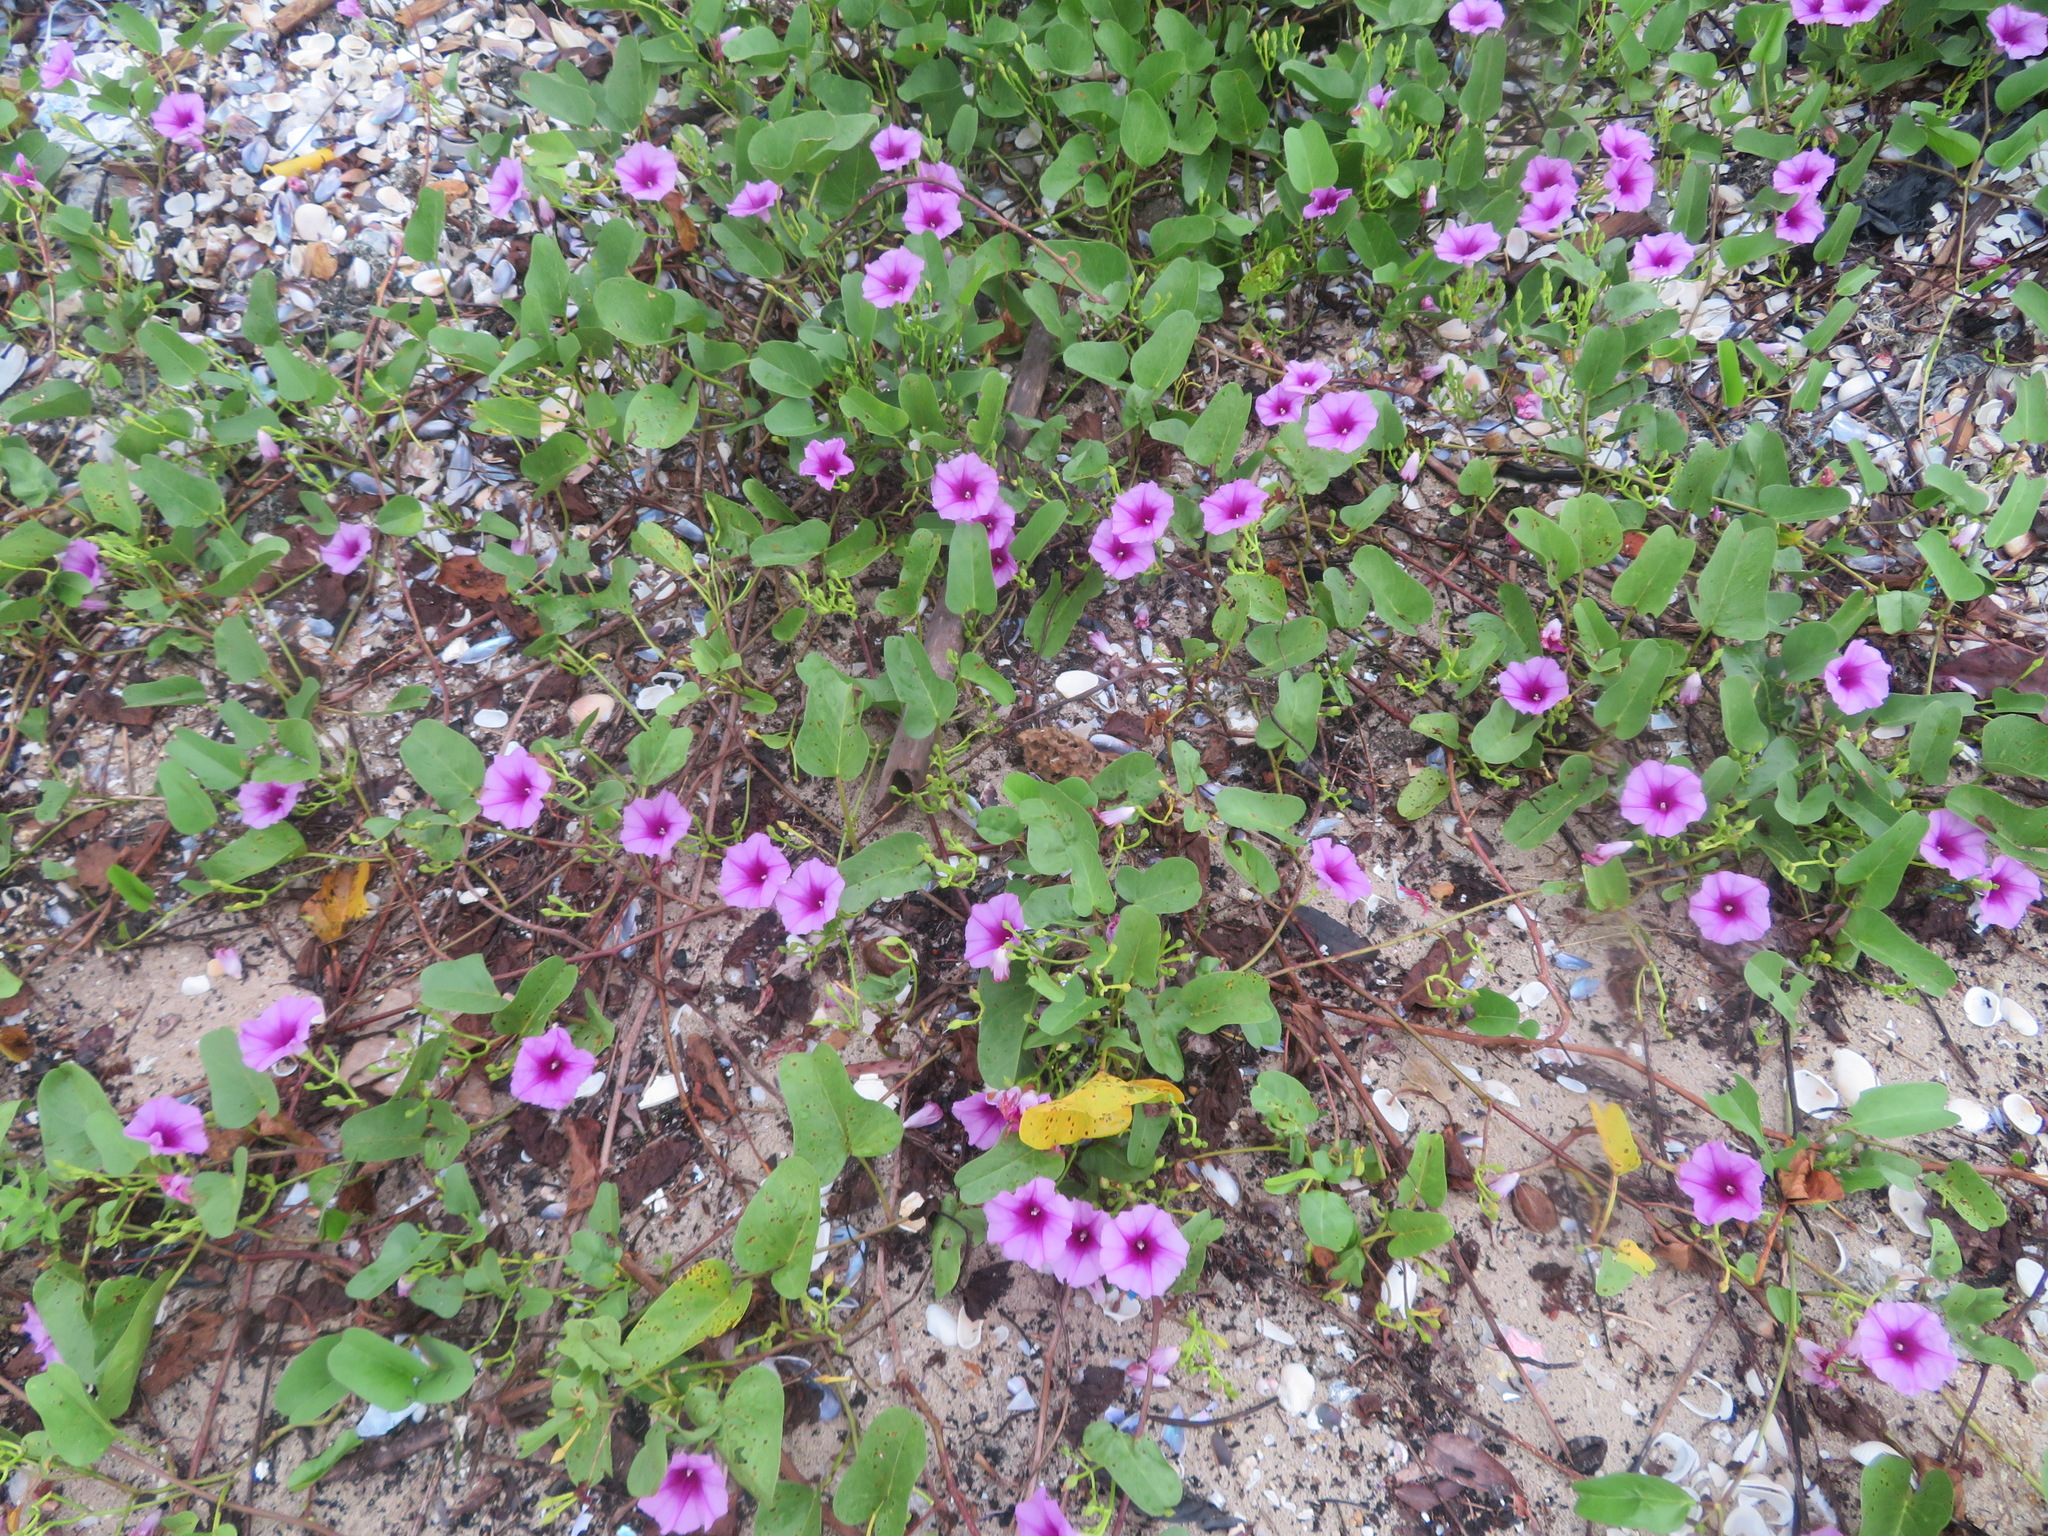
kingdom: Plantae
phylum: Tracheophyta
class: Magnoliopsida
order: Solanales
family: Convolvulaceae
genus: Ipomoea
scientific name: Ipomoea pes-caprae
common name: Beach morning glory
